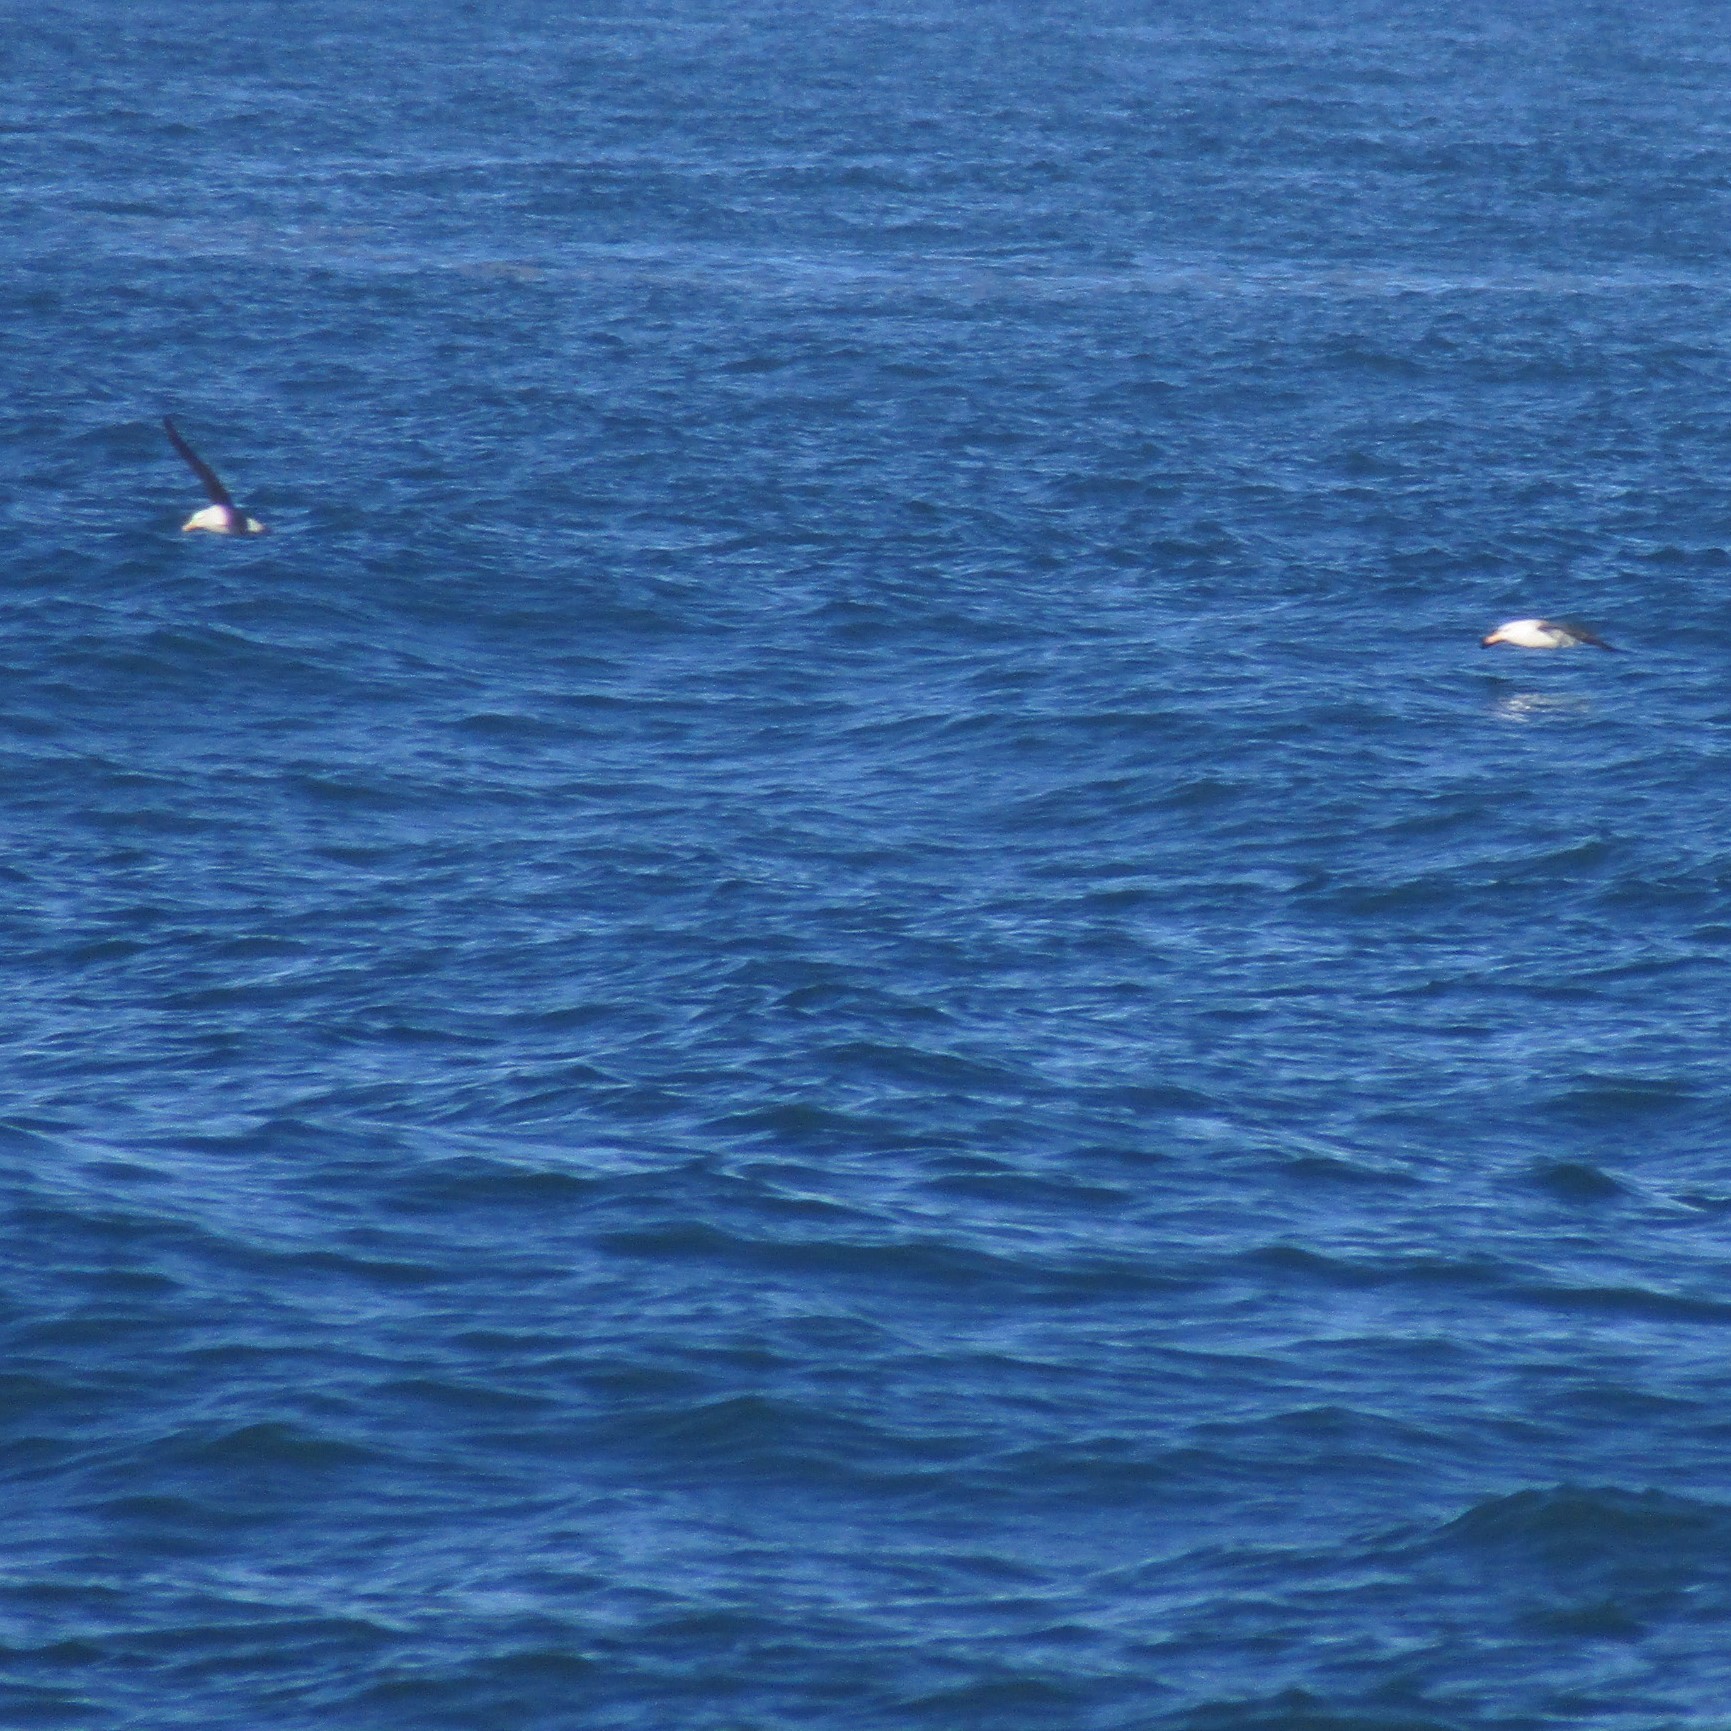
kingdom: Animalia
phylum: Chordata
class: Aves
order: Procellariiformes
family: Diomedeidae
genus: Thalassarche
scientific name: Thalassarche melanophris
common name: Black-browed albatross
